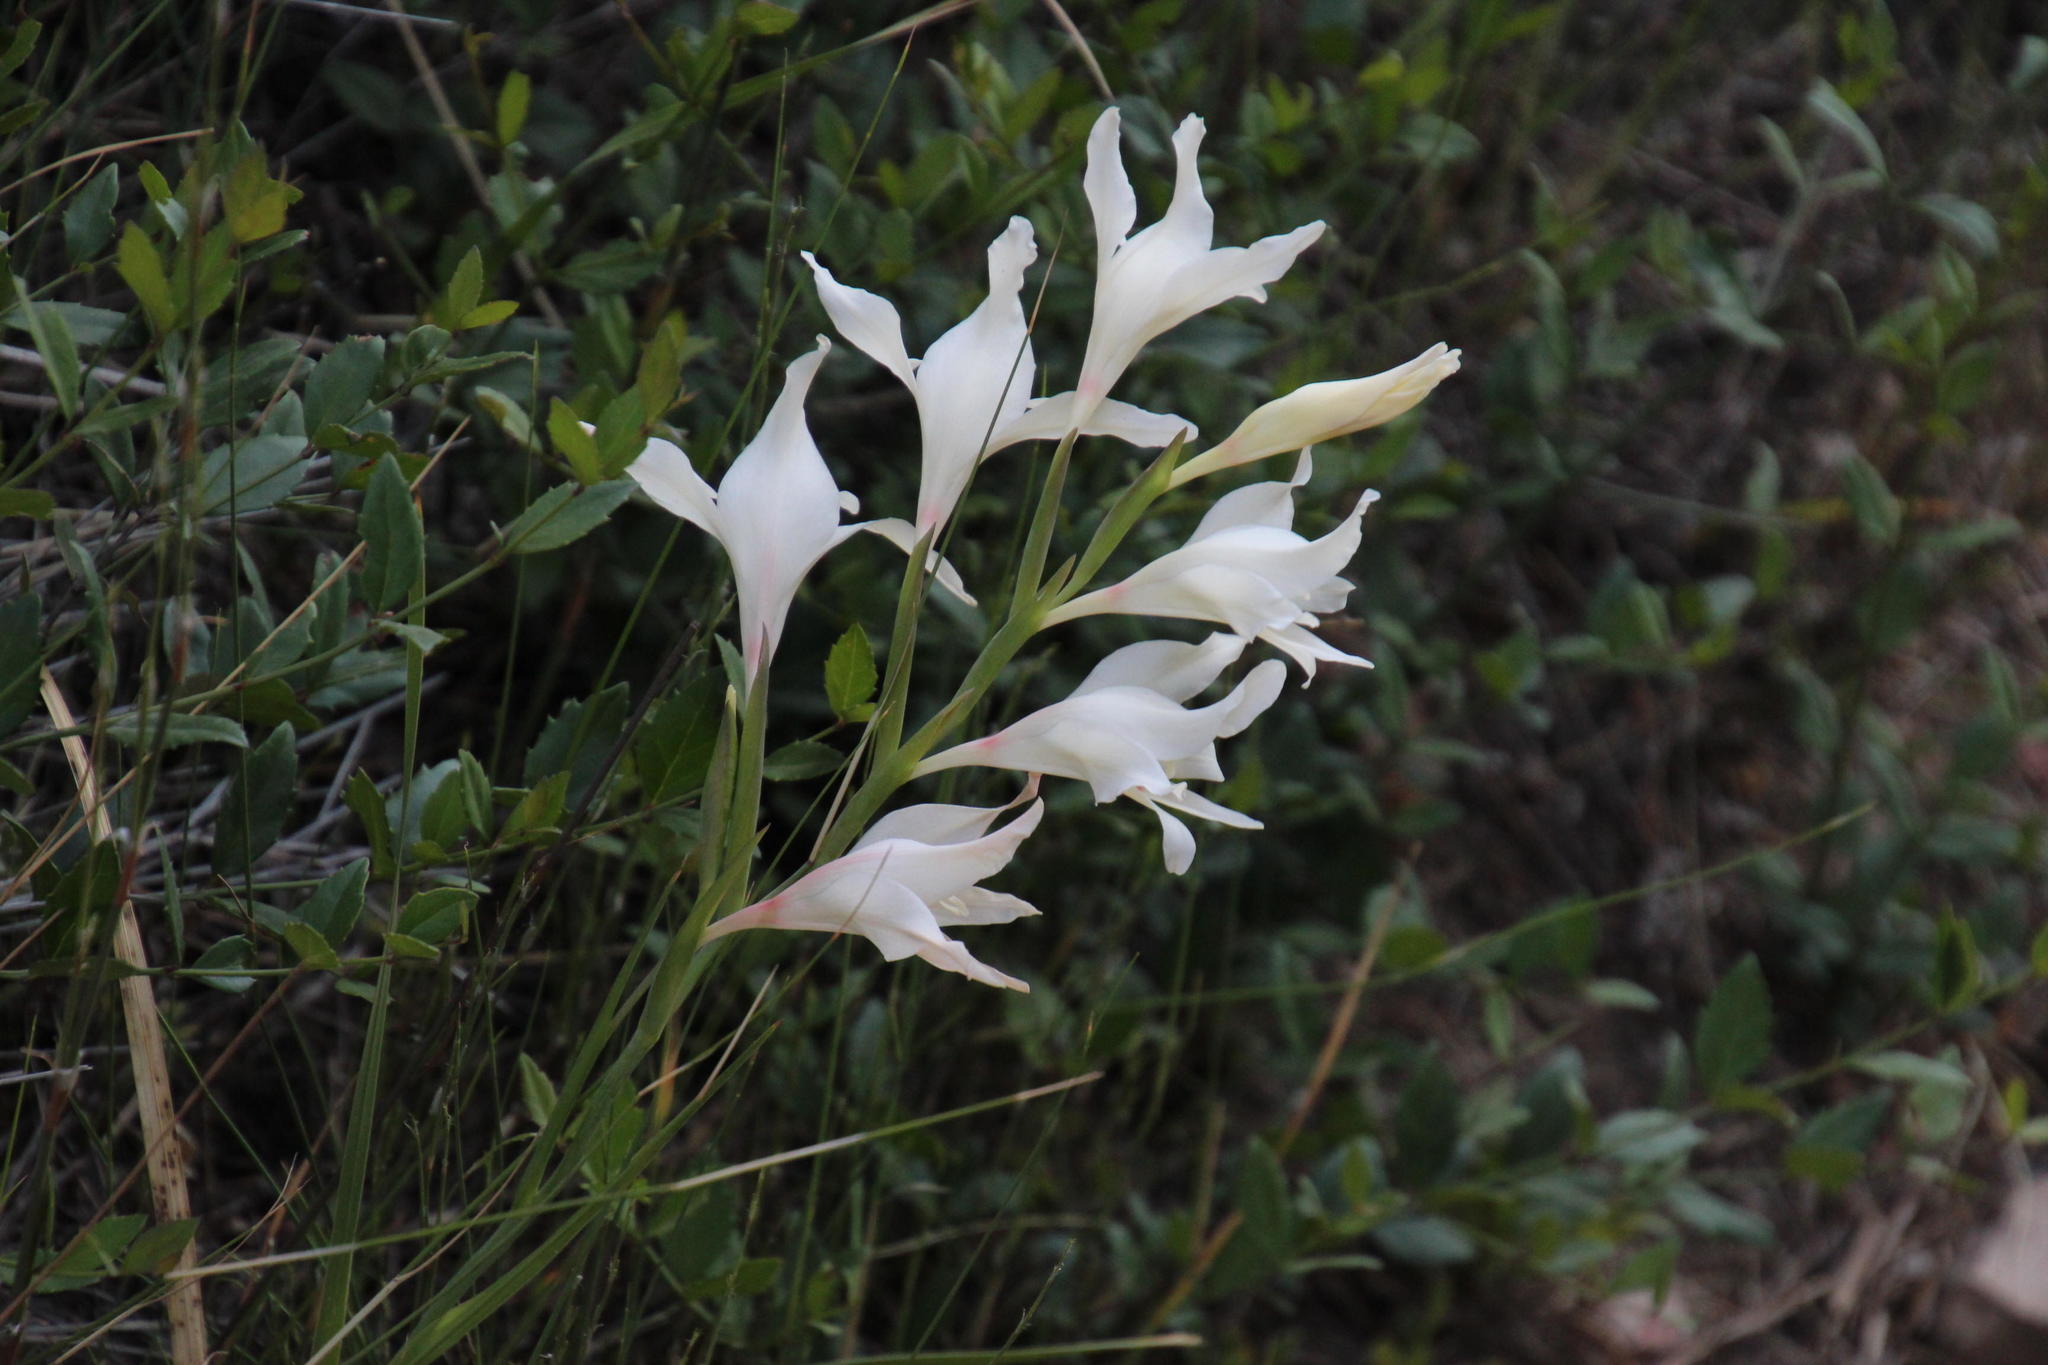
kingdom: Plantae
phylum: Tracheophyta
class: Liliopsida
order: Asparagales
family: Iridaceae
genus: Gladiolus
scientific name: Gladiolus carneus
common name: Painted-lady
